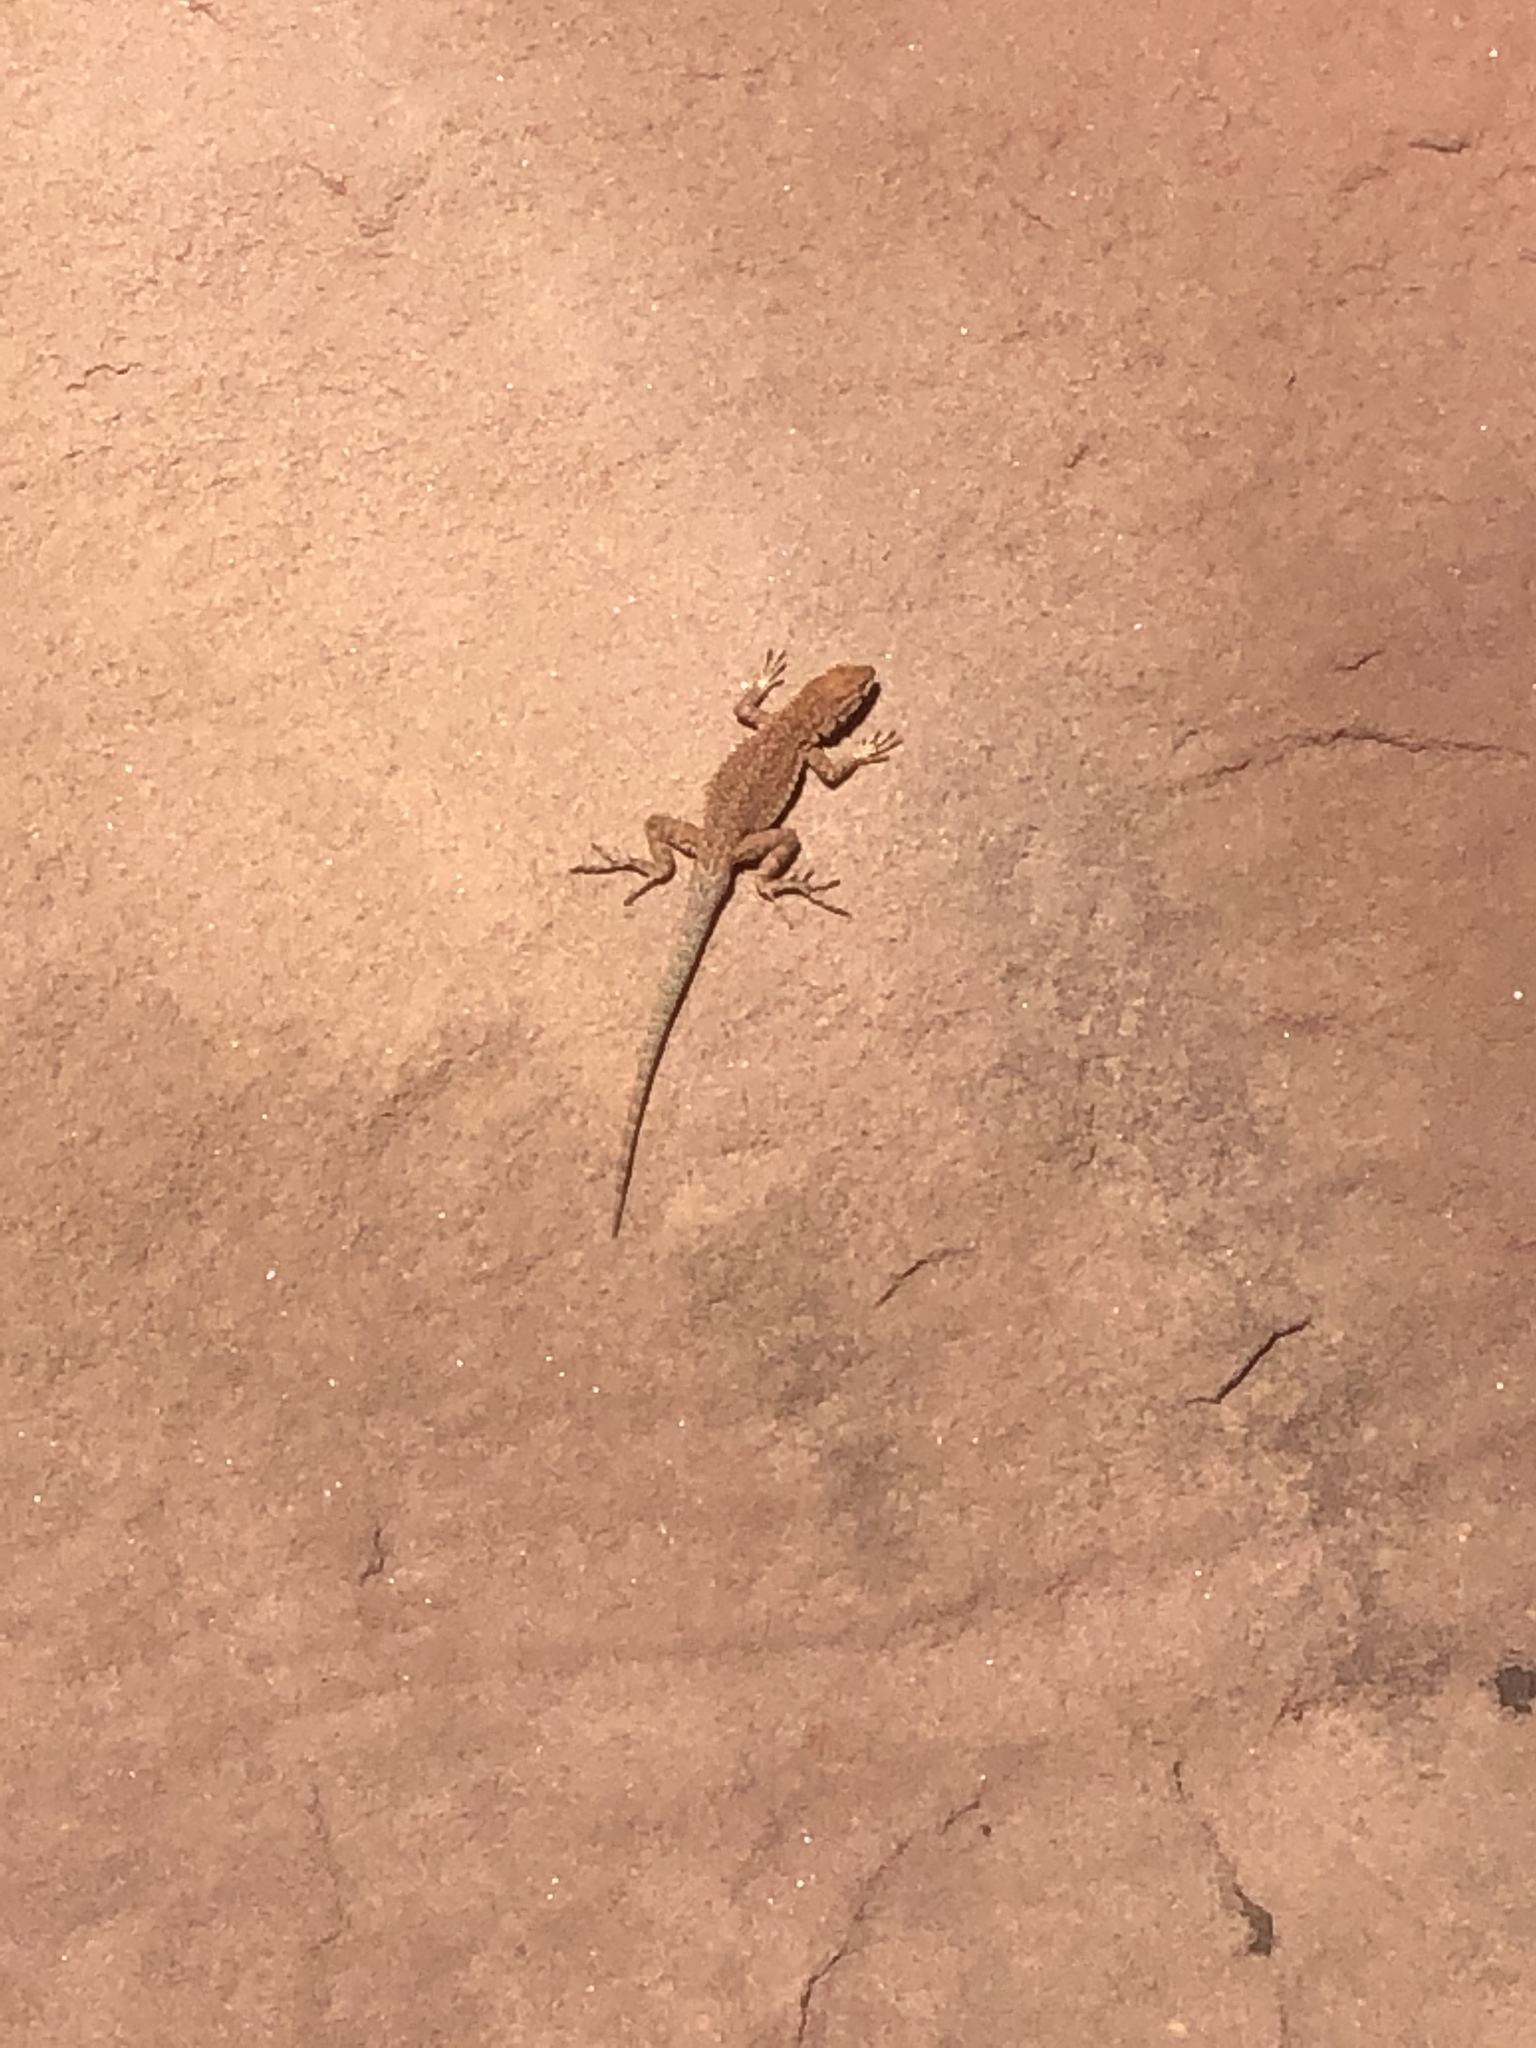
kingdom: Animalia
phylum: Chordata
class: Squamata
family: Phrynosomatidae
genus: Uta
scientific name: Uta stansburiana
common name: Side-blotched lizard
